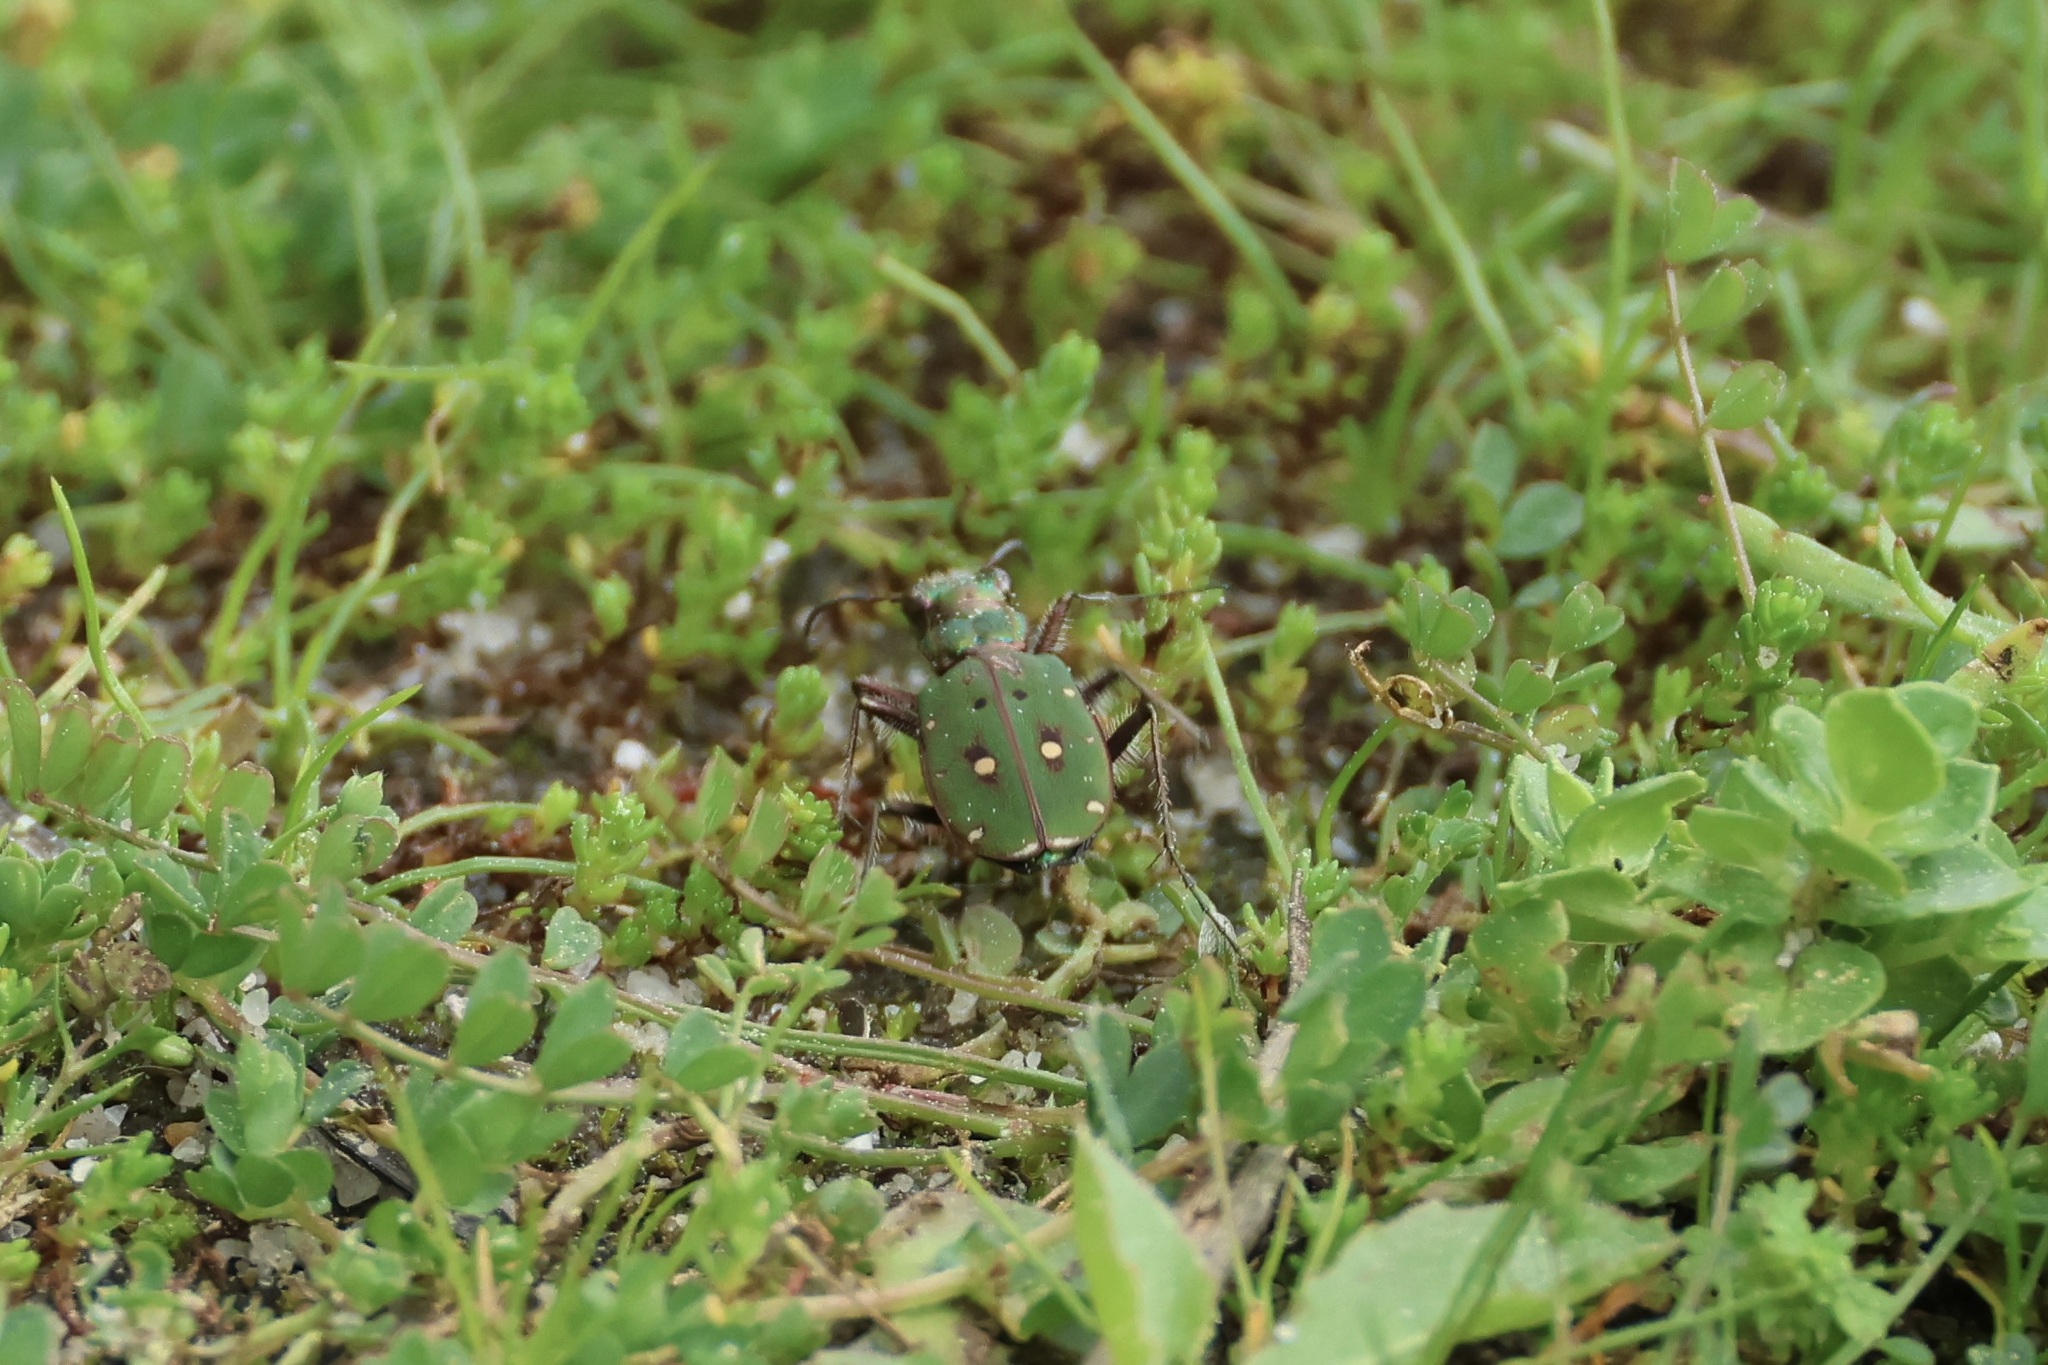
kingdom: Animalia
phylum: Arthropoda
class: Insecta
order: Coleoptera
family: Carabidae
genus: Cicindela
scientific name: Cicindela campestris
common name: Common tiger beetle
